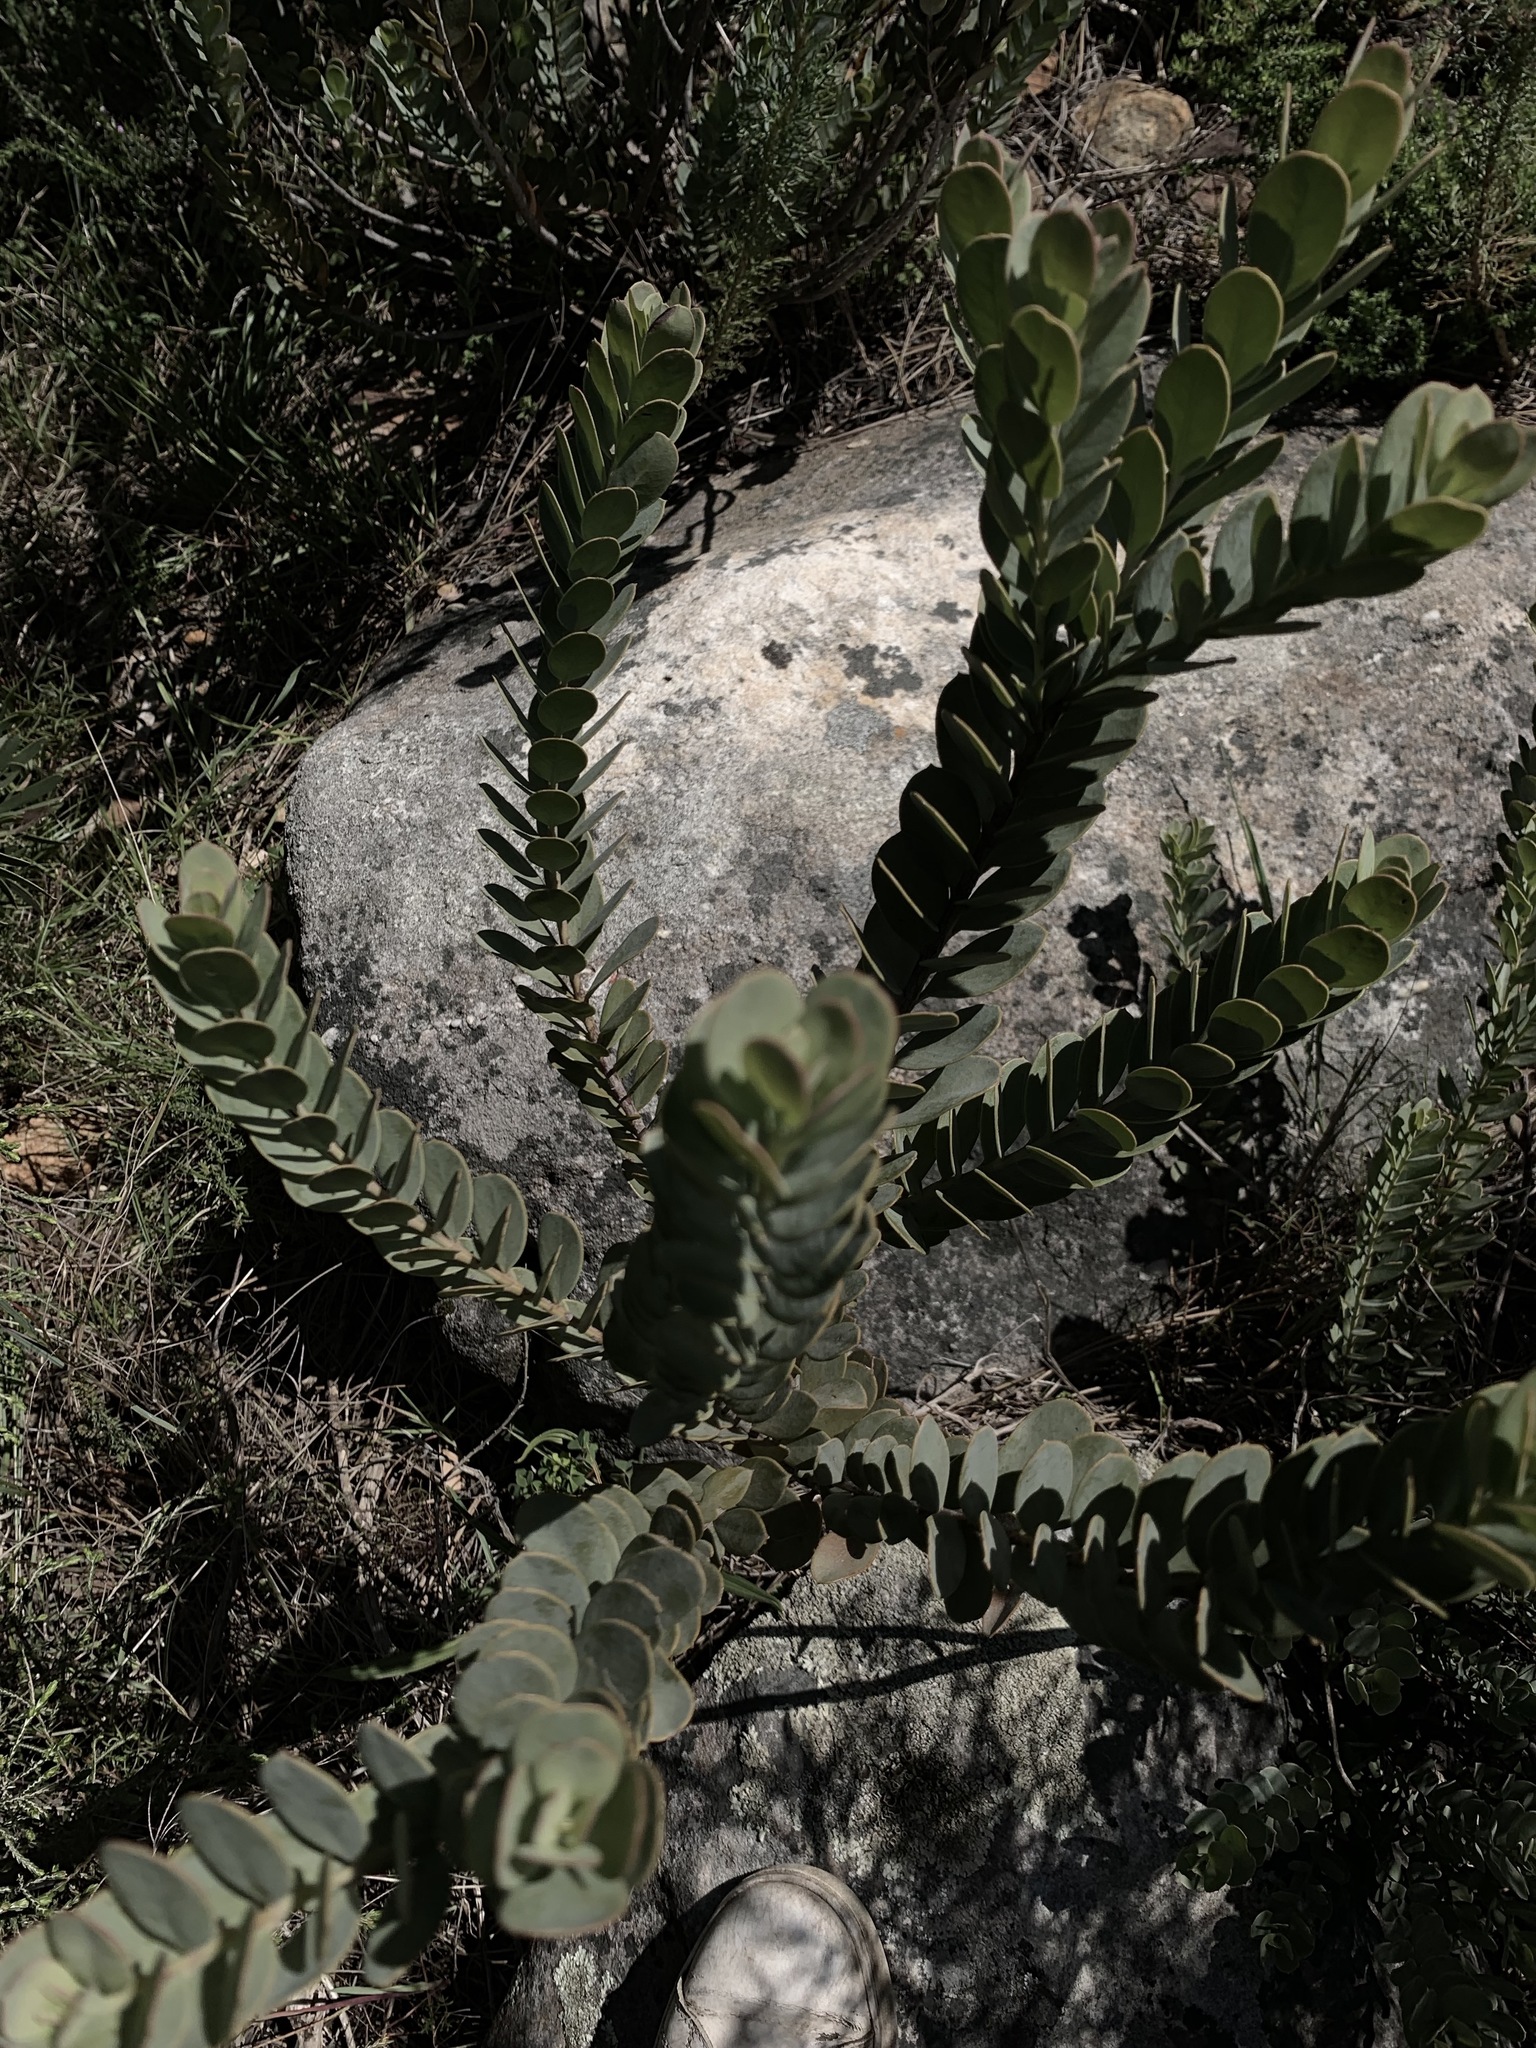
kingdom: Plantae
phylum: Tracheophyta
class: Magnoliopsida
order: Santalales
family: Santalaceae
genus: Osyris
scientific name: Osyris compressa
